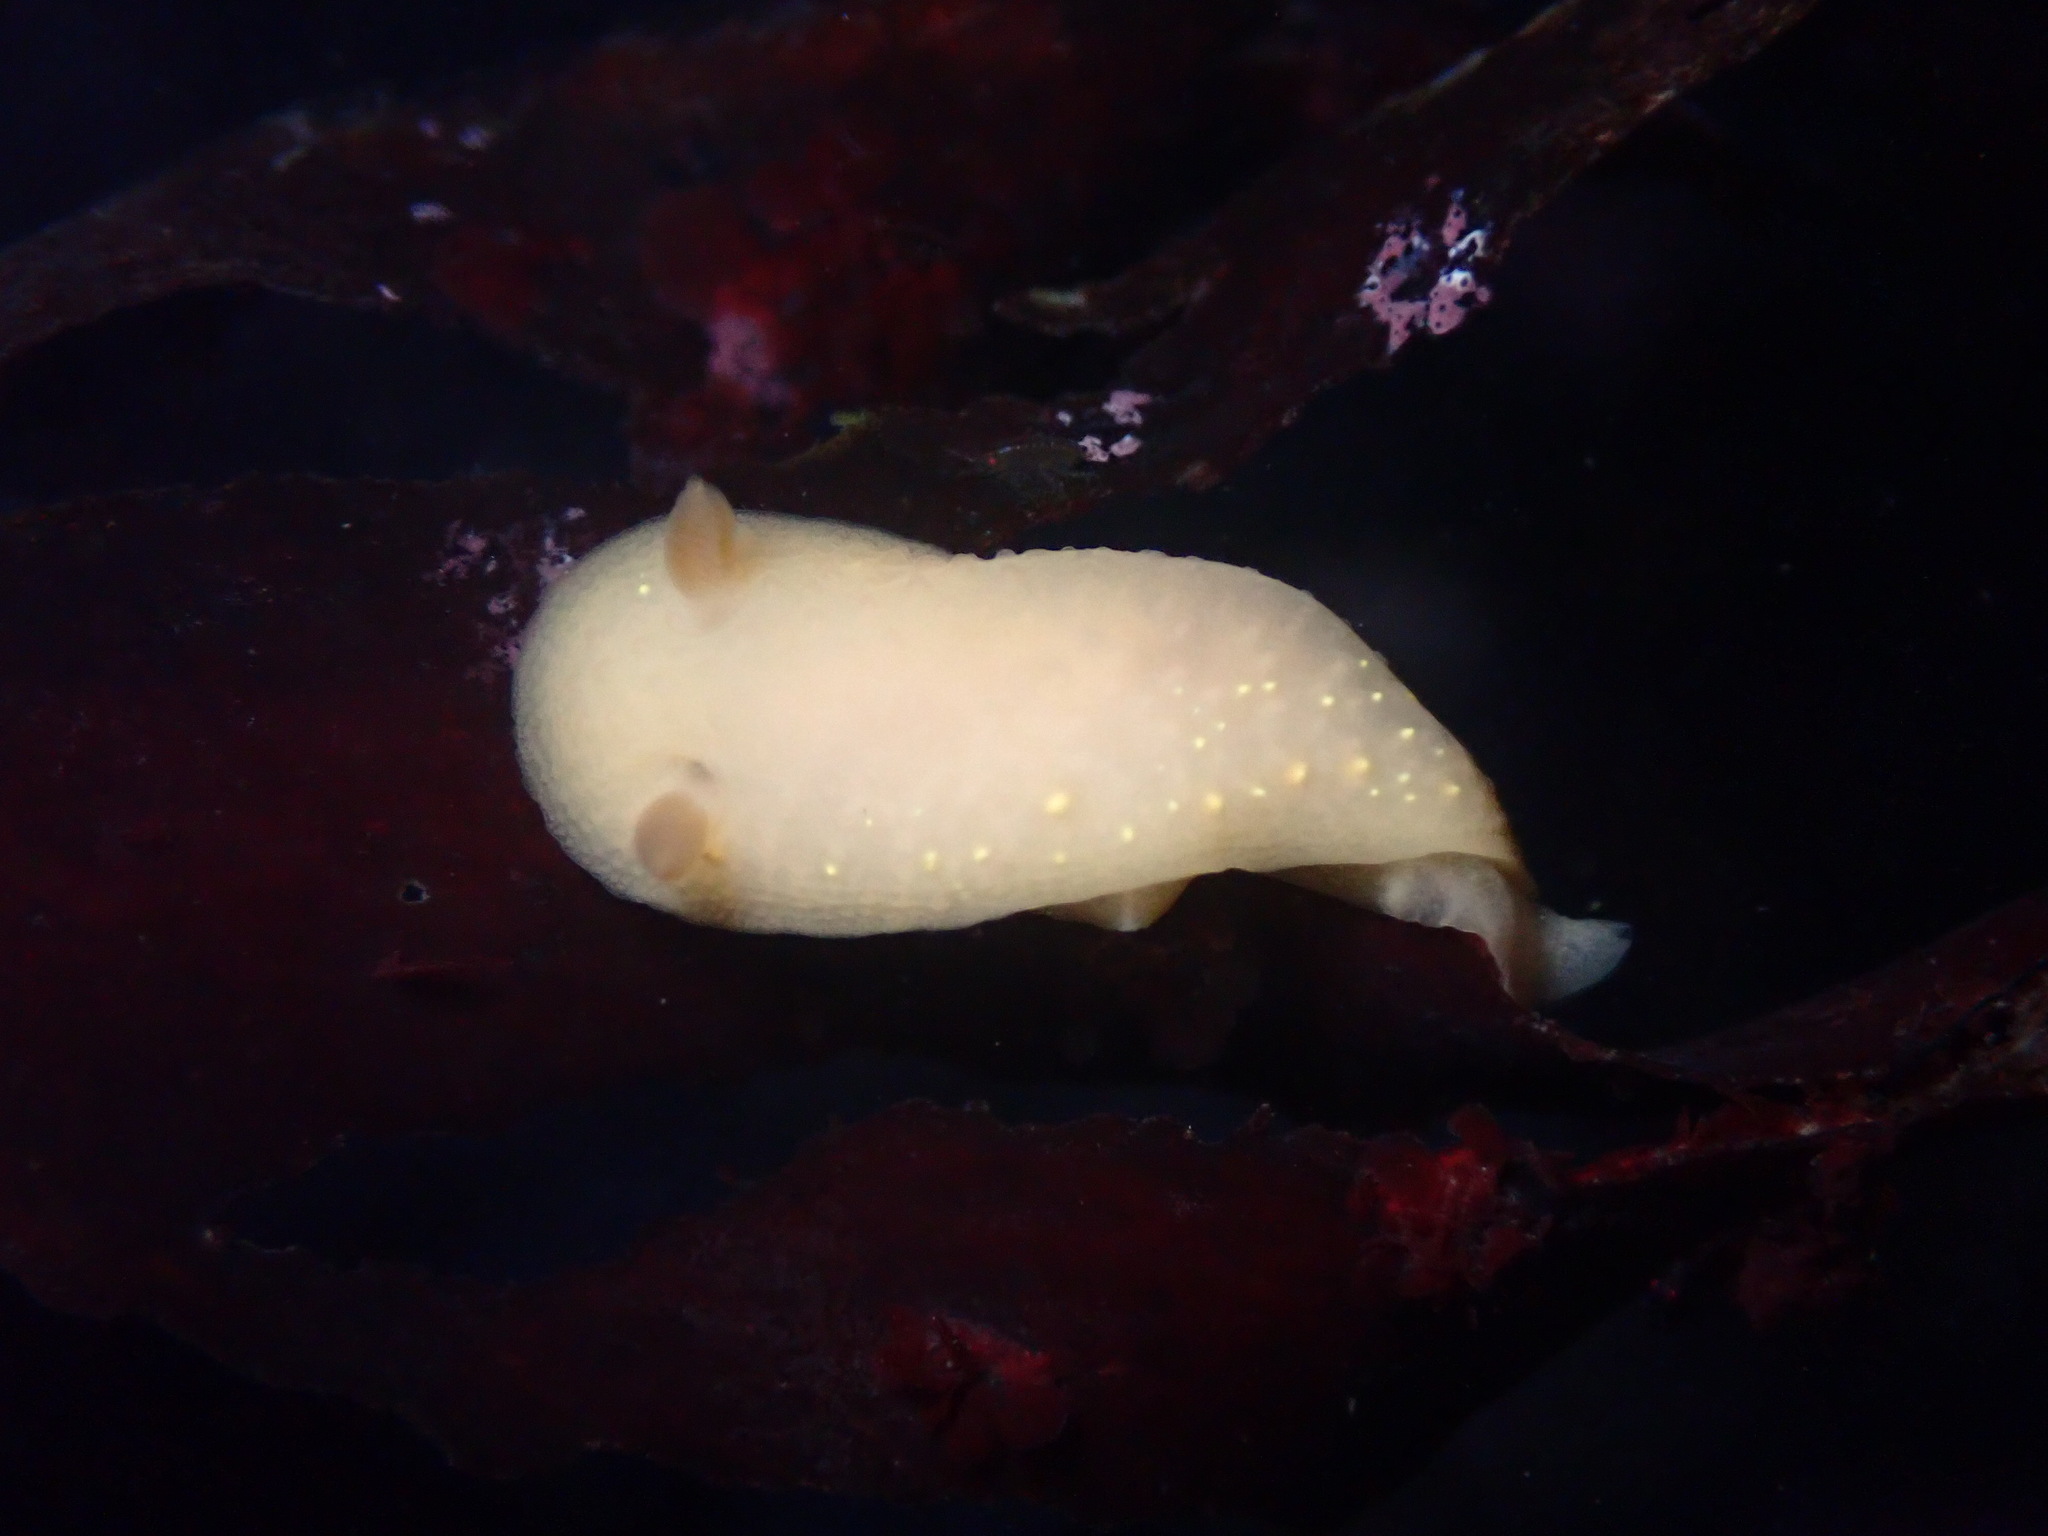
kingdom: Animalia
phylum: Mollusca
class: Gastropoda
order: Nudibranchia
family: Cadlinidae
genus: Cadlina
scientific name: Cadlina modesta
